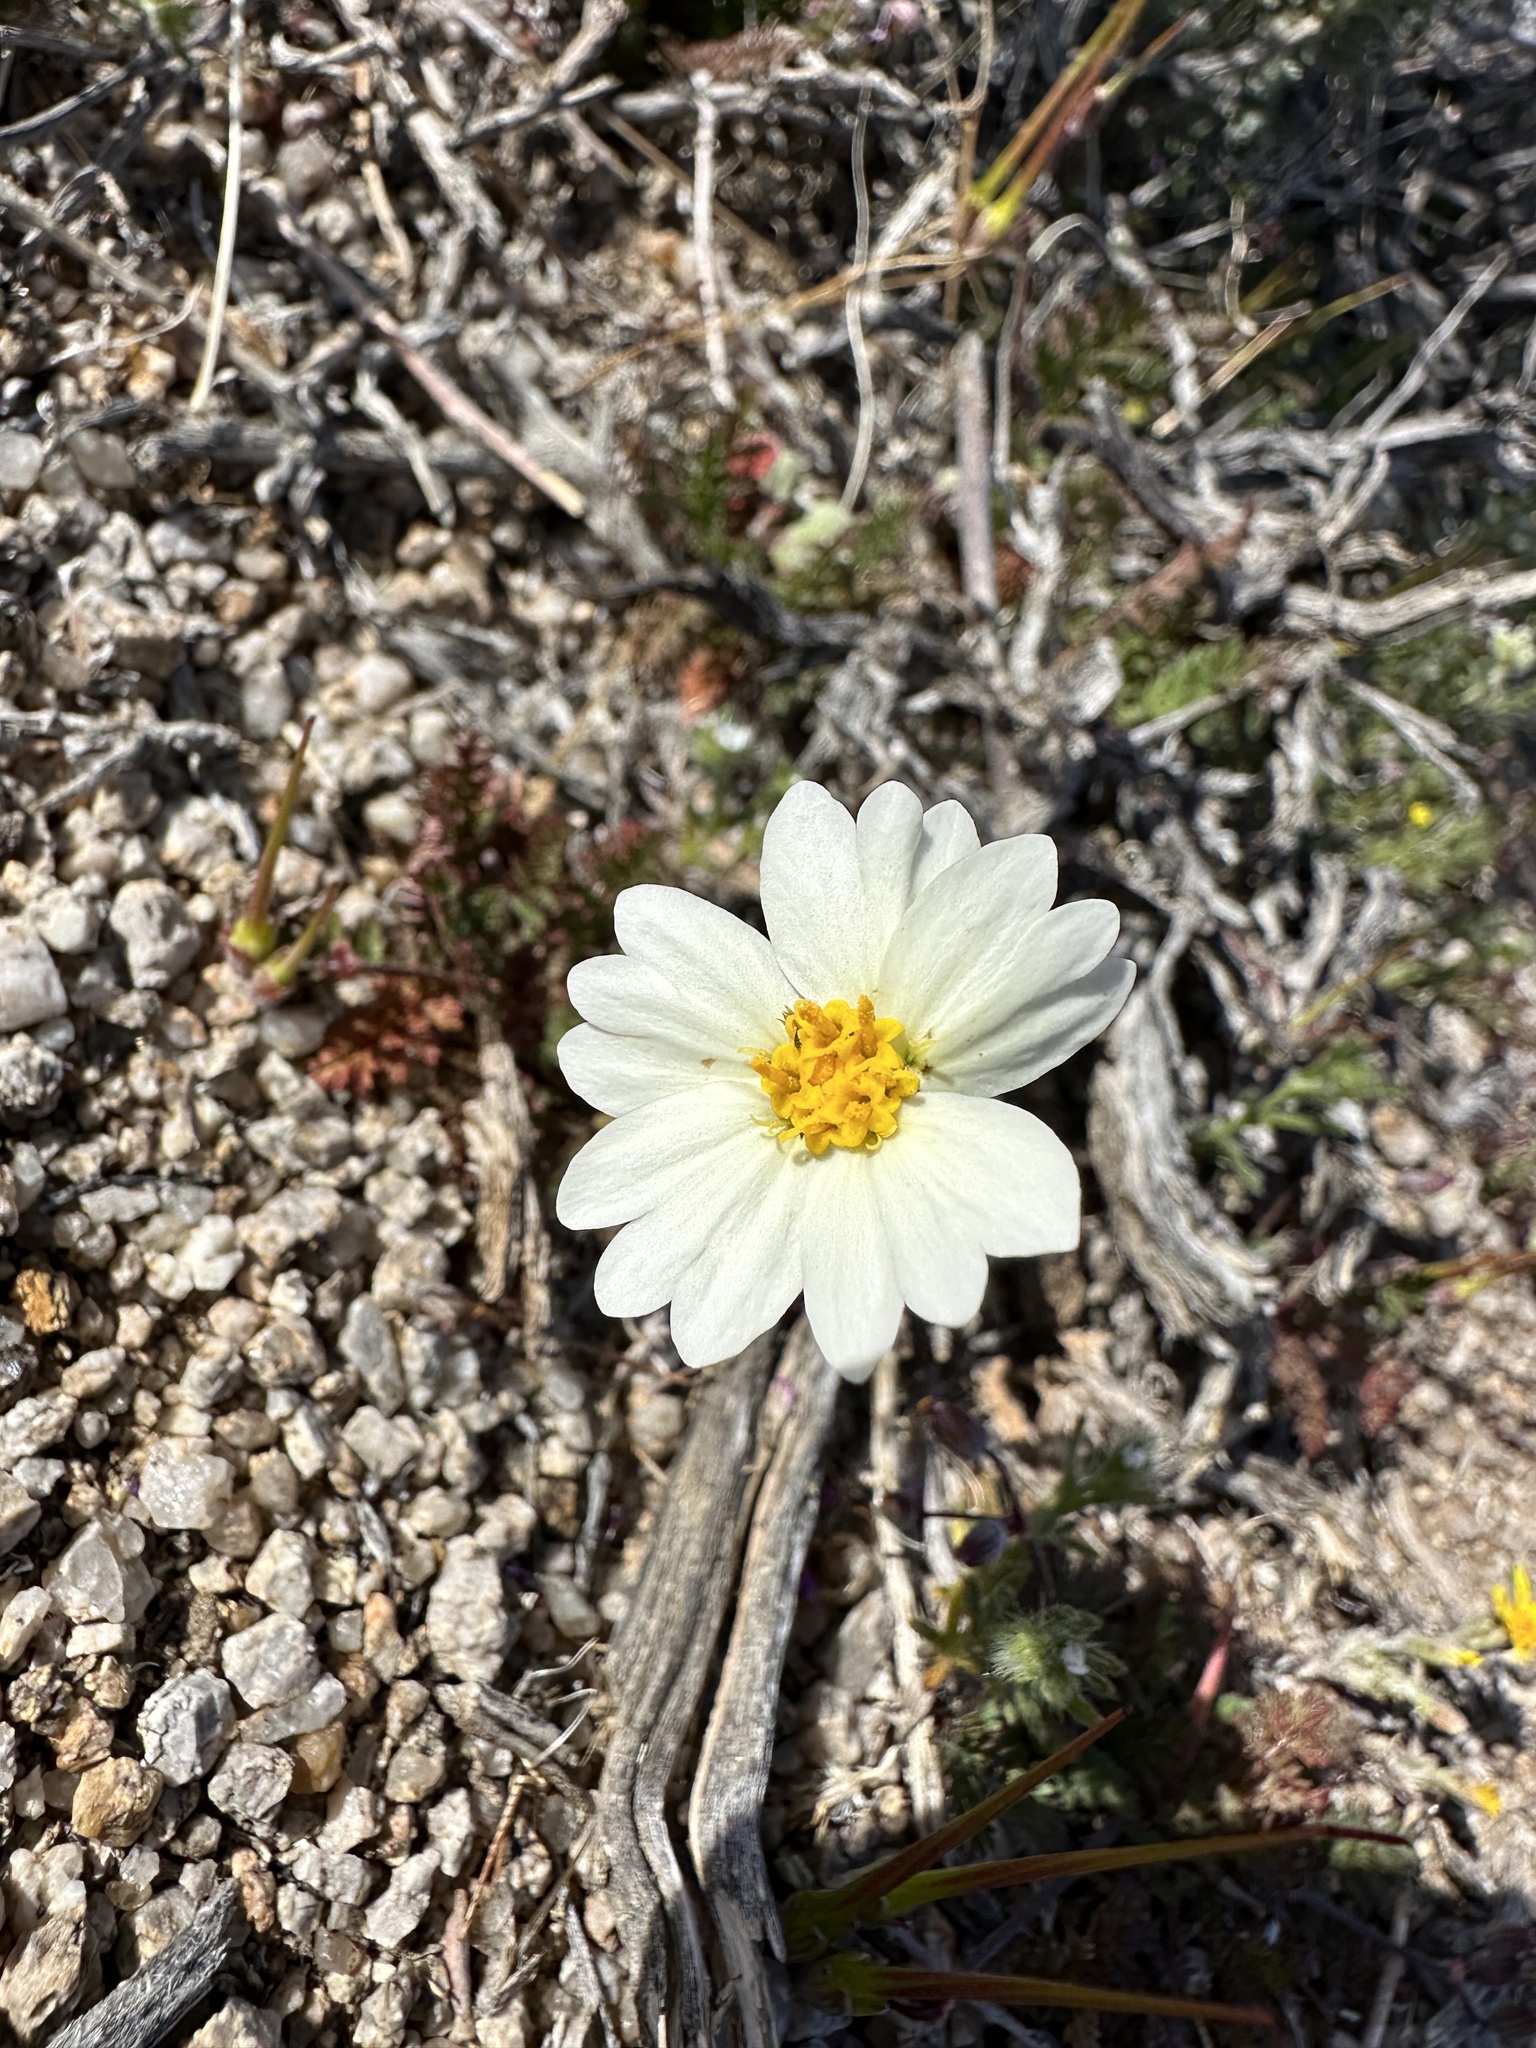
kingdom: Plantae
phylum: Tracheophyta
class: Magnoliopsida
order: Asterales
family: Asteraceae
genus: Layia
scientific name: Layia glandulosa
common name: White layia
